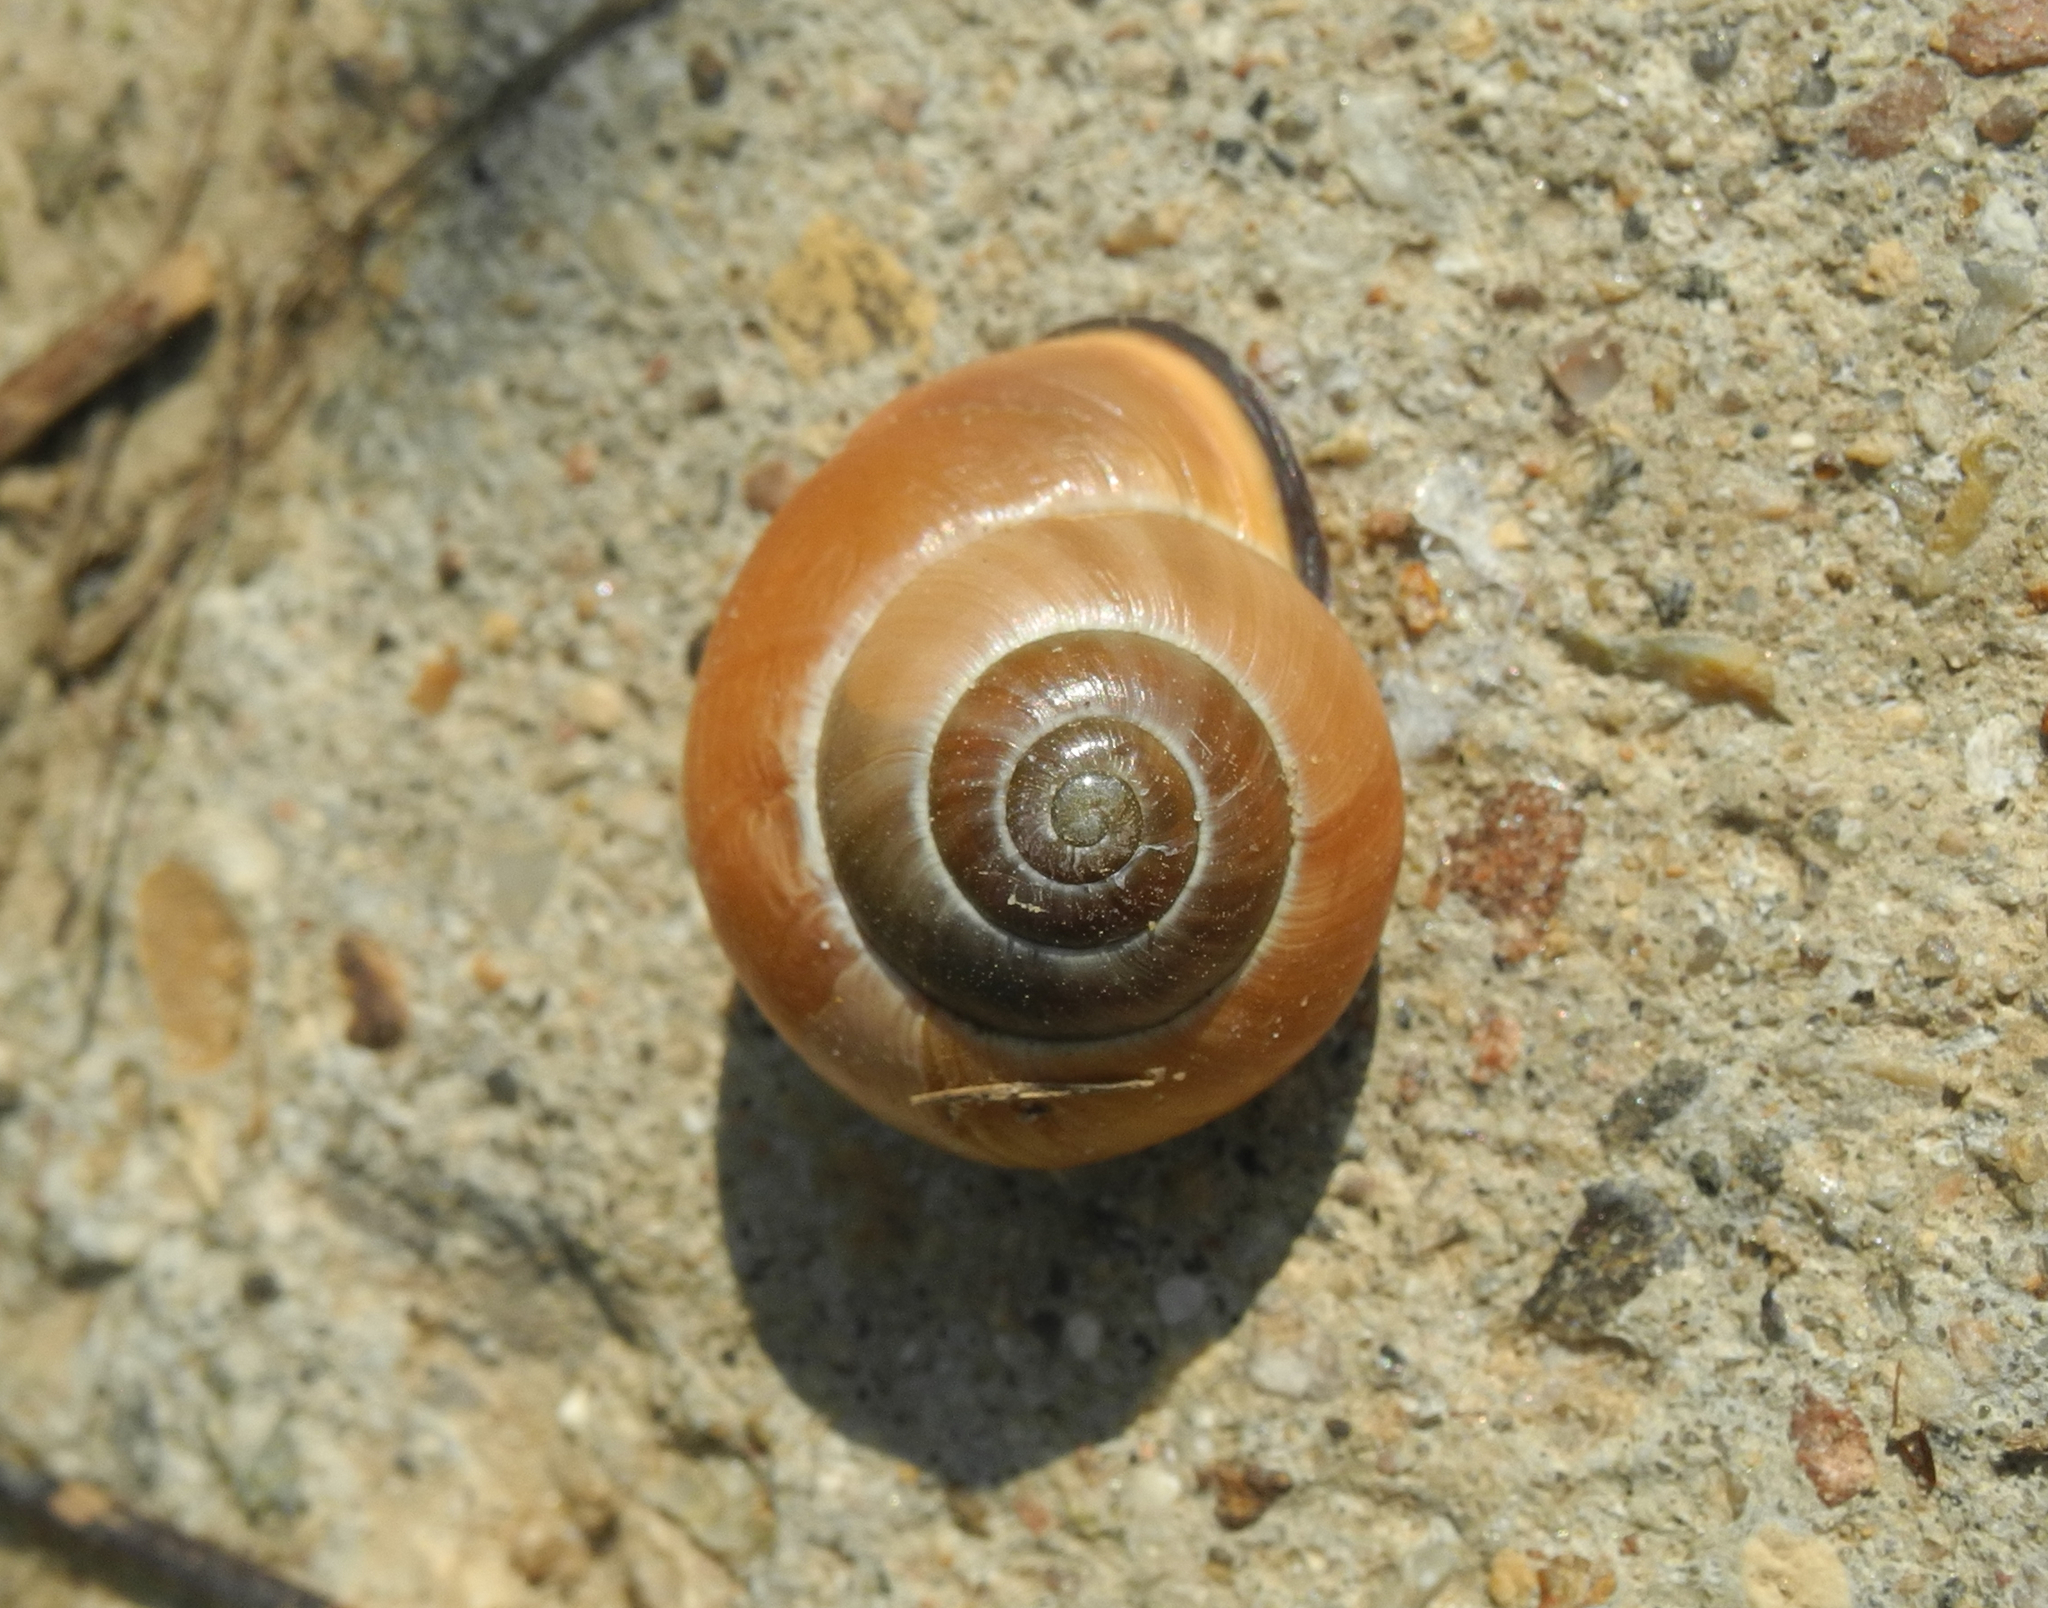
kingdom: Animalia
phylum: Mollusca
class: Gastropoda
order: Stylommatophora
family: Helicidae
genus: Cepaea
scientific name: Cepaea nemoralis
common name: Grovesnail
